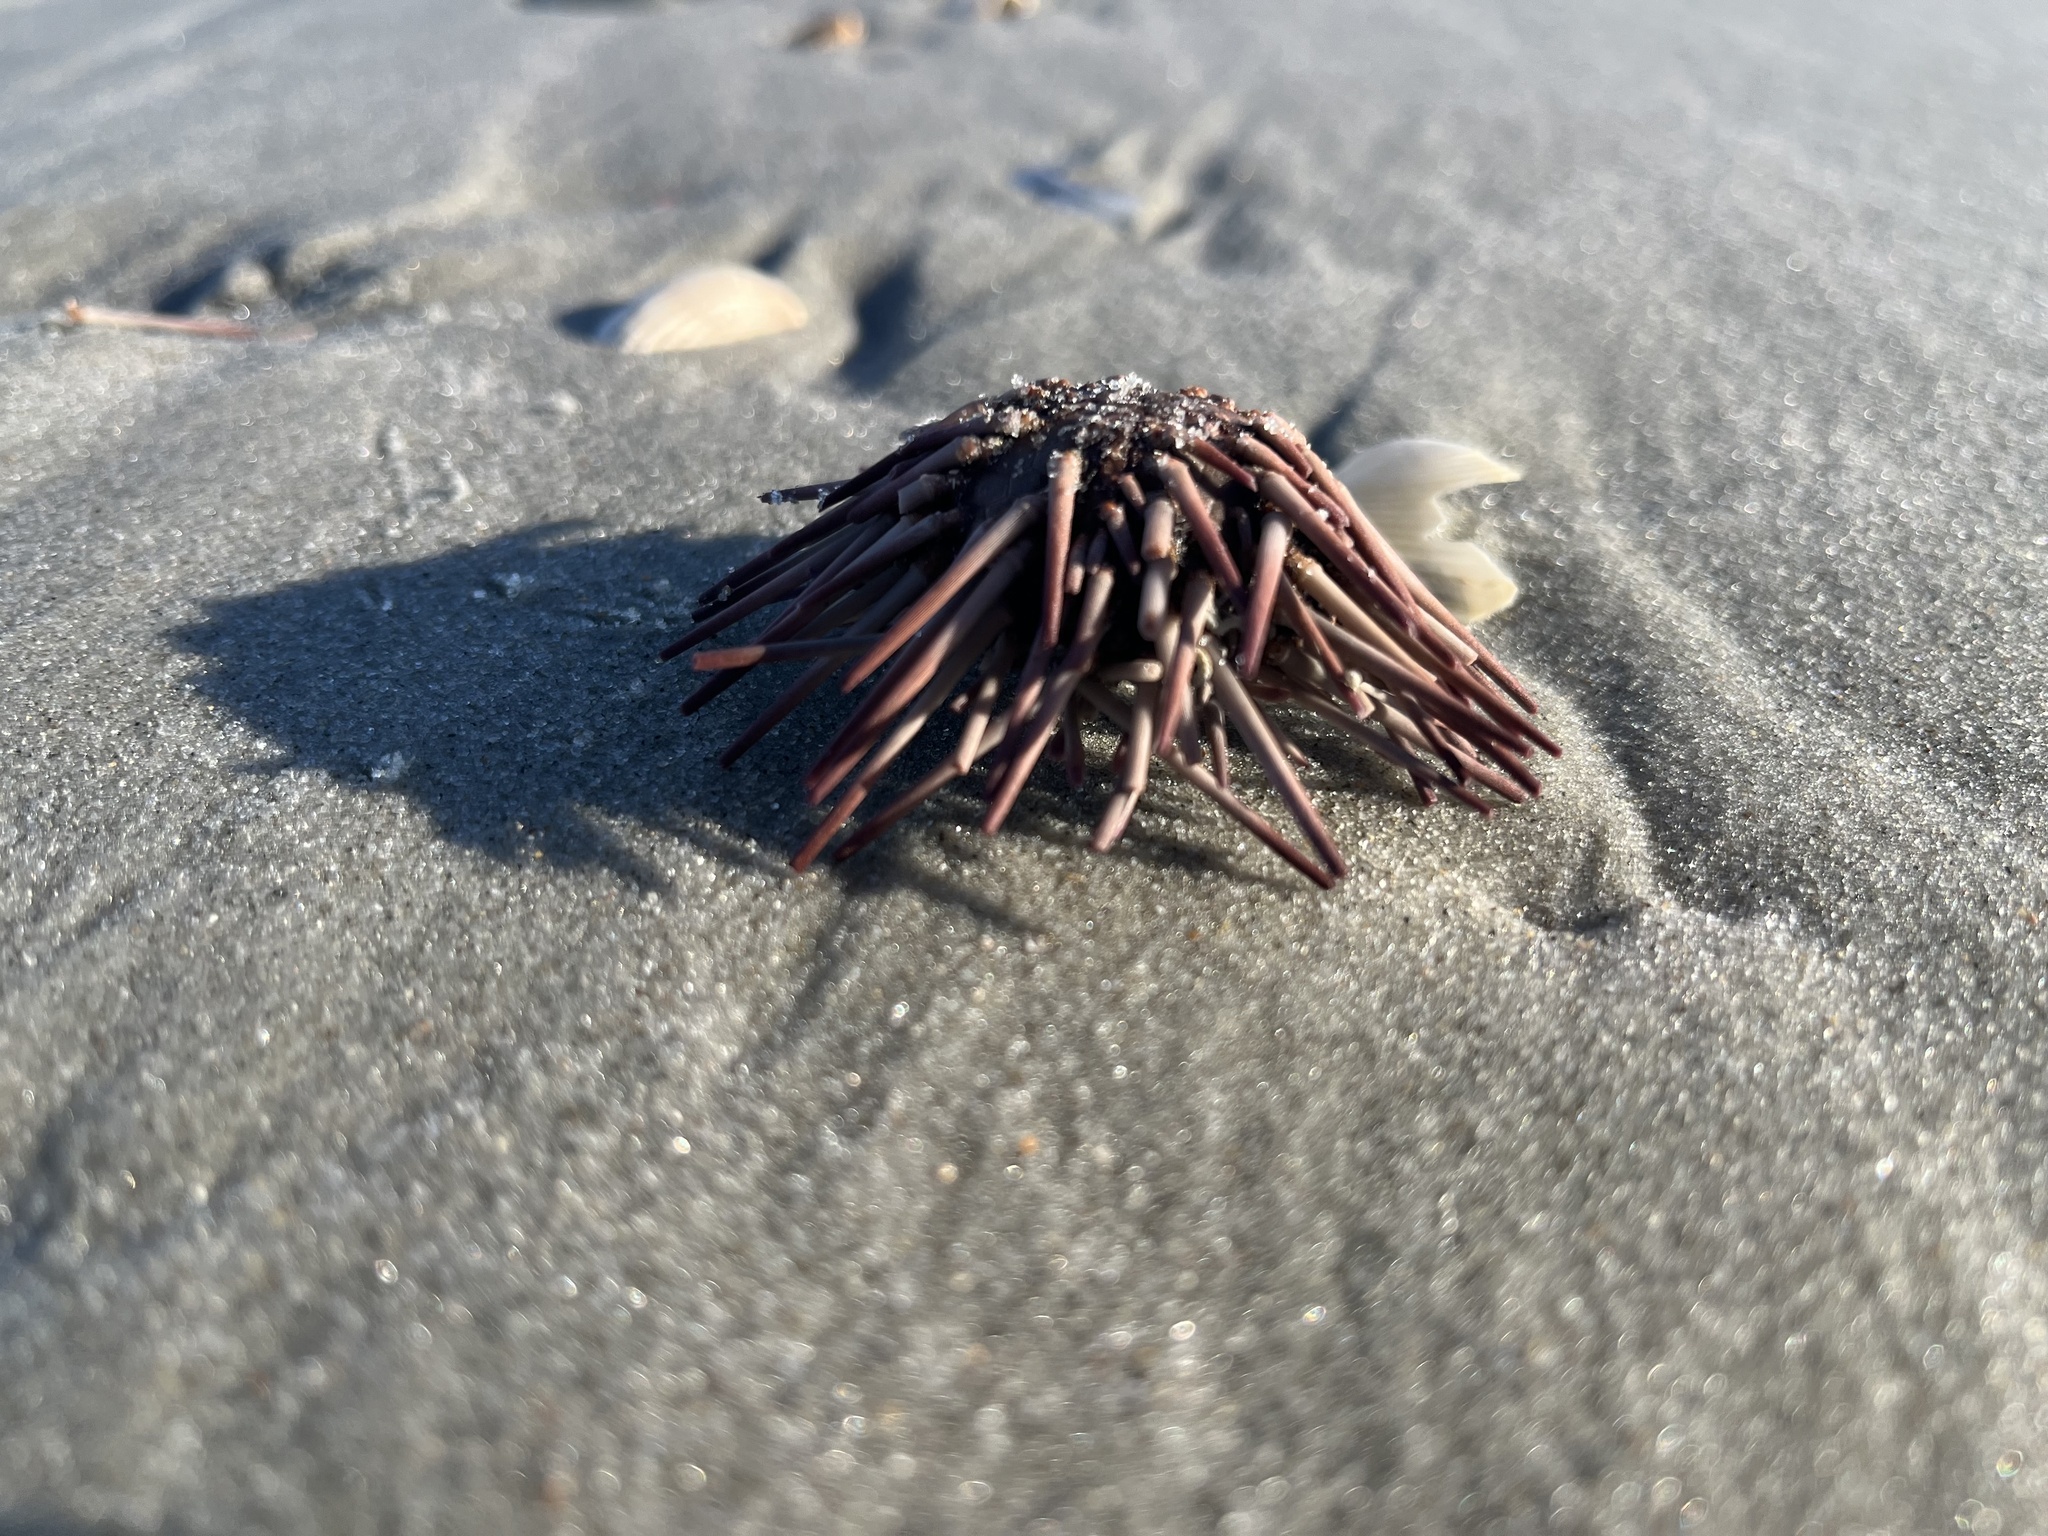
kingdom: Animalia
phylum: Echinodermata
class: Echinoidea
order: Arbacioida
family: Arbaciidae
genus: Arbacia
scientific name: Arbacia punctulata
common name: Purple-spined sea urchin
